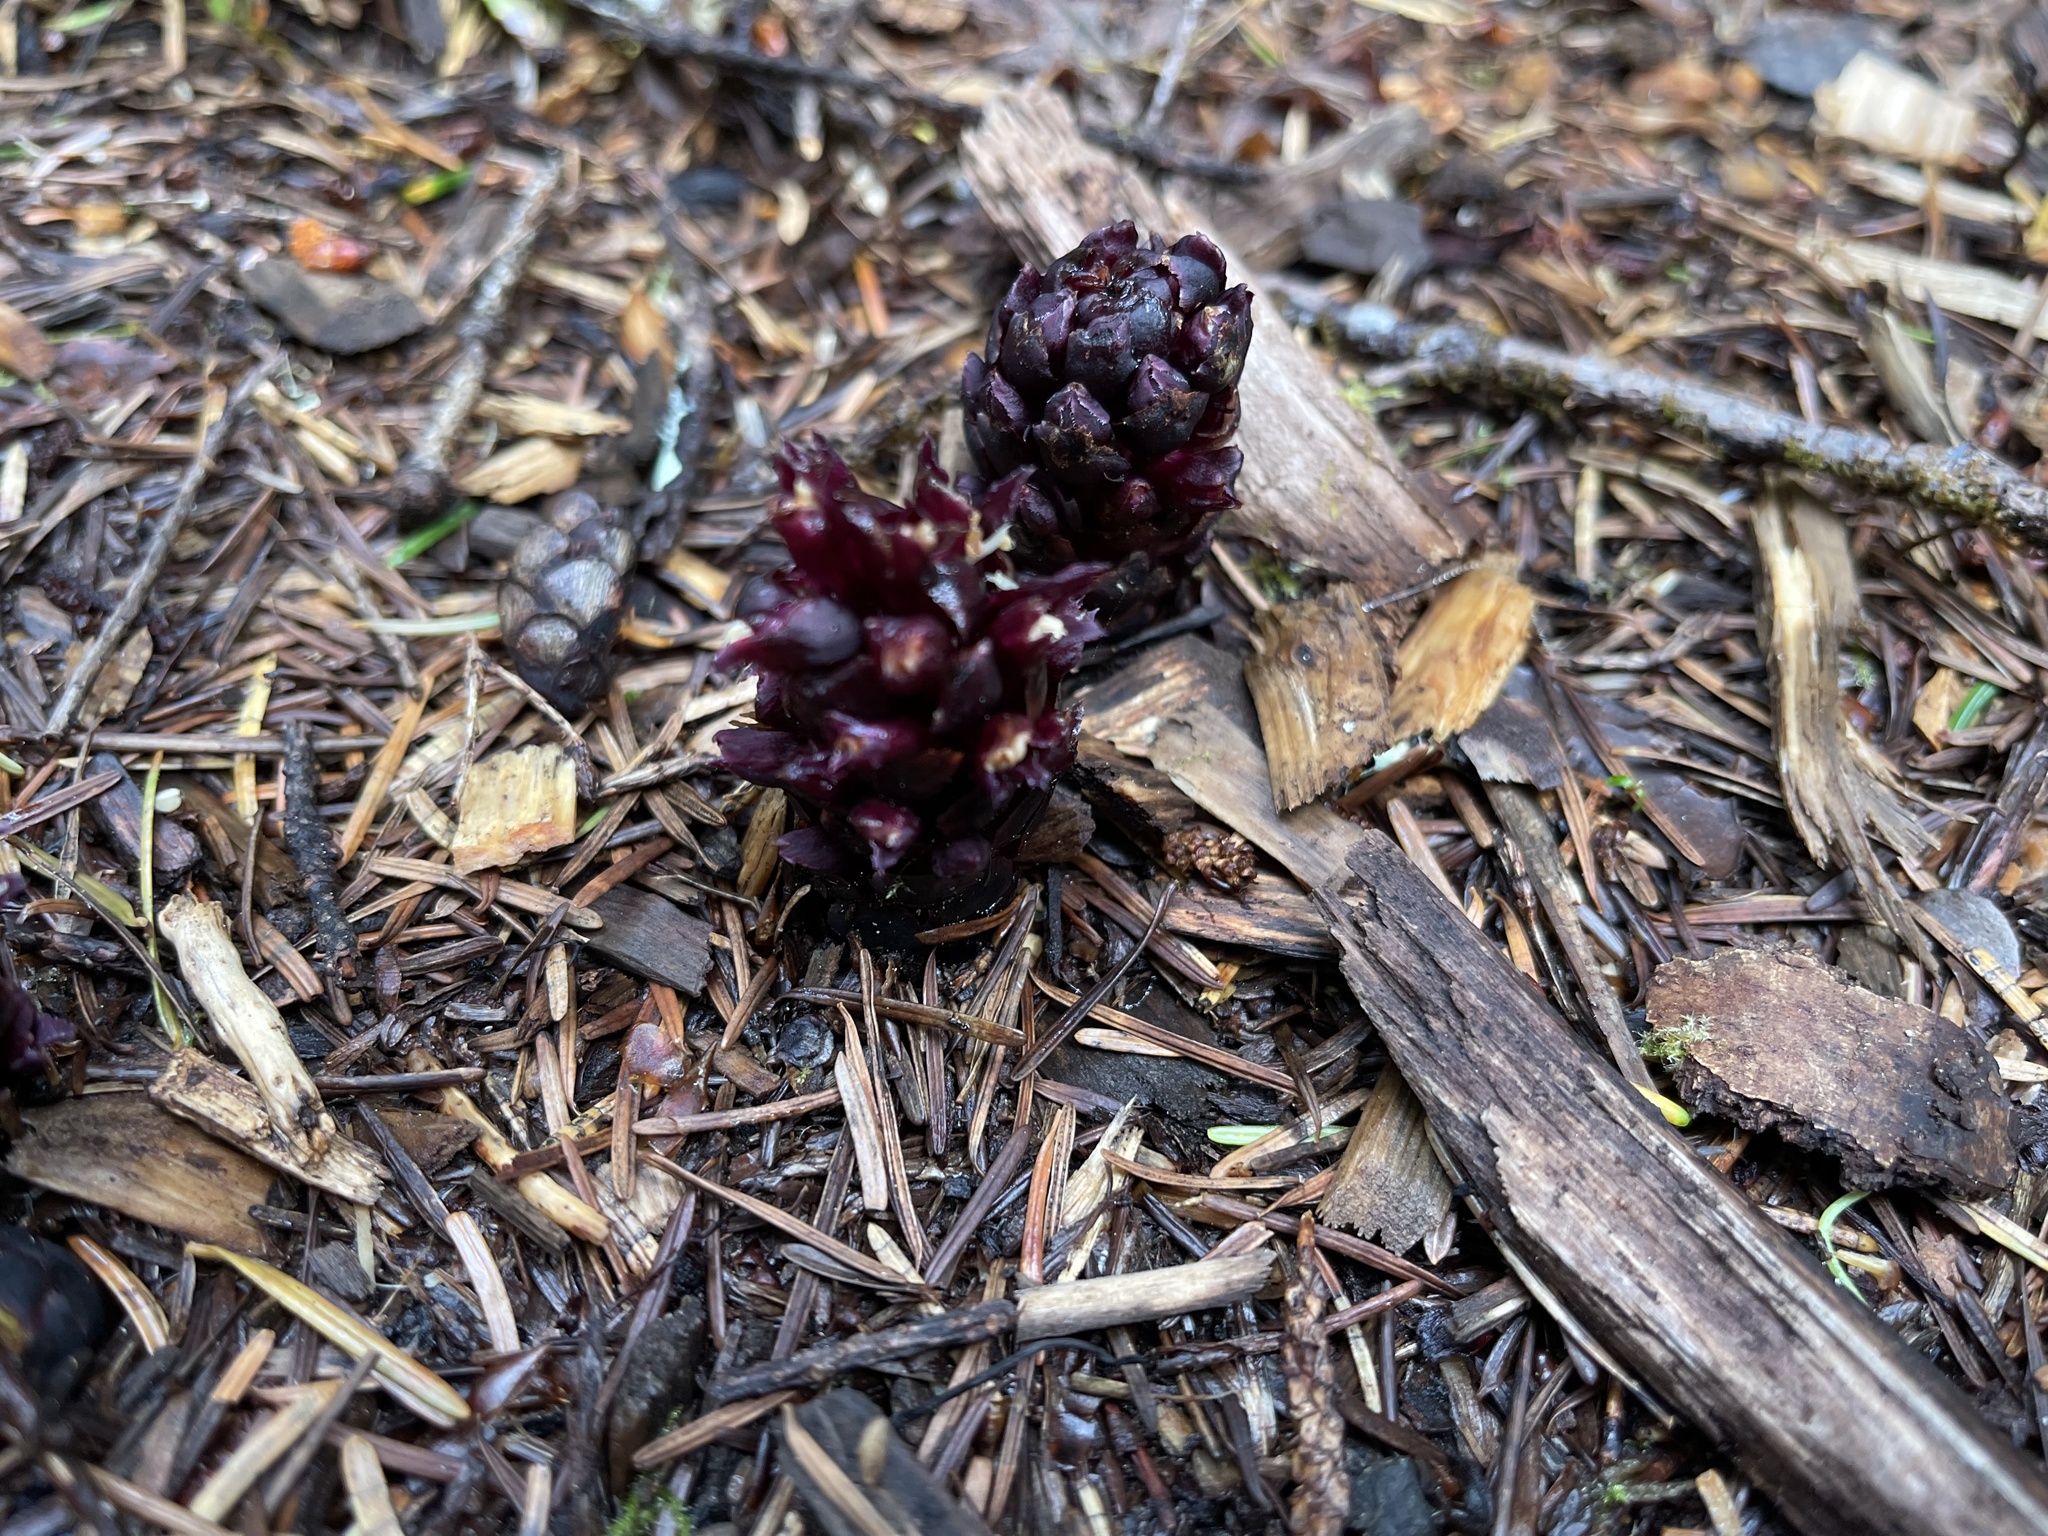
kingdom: Plantae
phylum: Tracheophyta
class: Magnoliopsida
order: Lamiales
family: Orobanchaceae
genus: Kopsiopsis
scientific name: Kopsiopsis hookeri
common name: Hooker's groundcone
